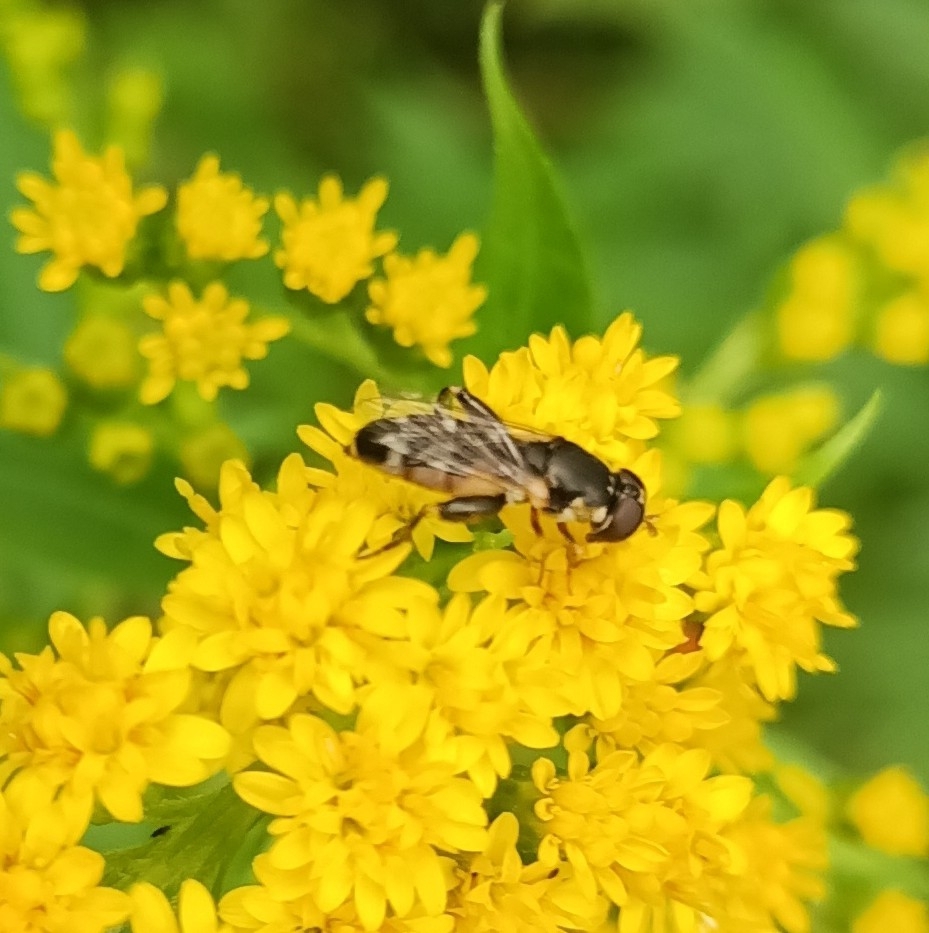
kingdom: Animalia
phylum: Arthropoda
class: Insecta
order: Diptera
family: Syrphidae
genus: Syritta
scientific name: Syritta pipiens
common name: Hover fly
